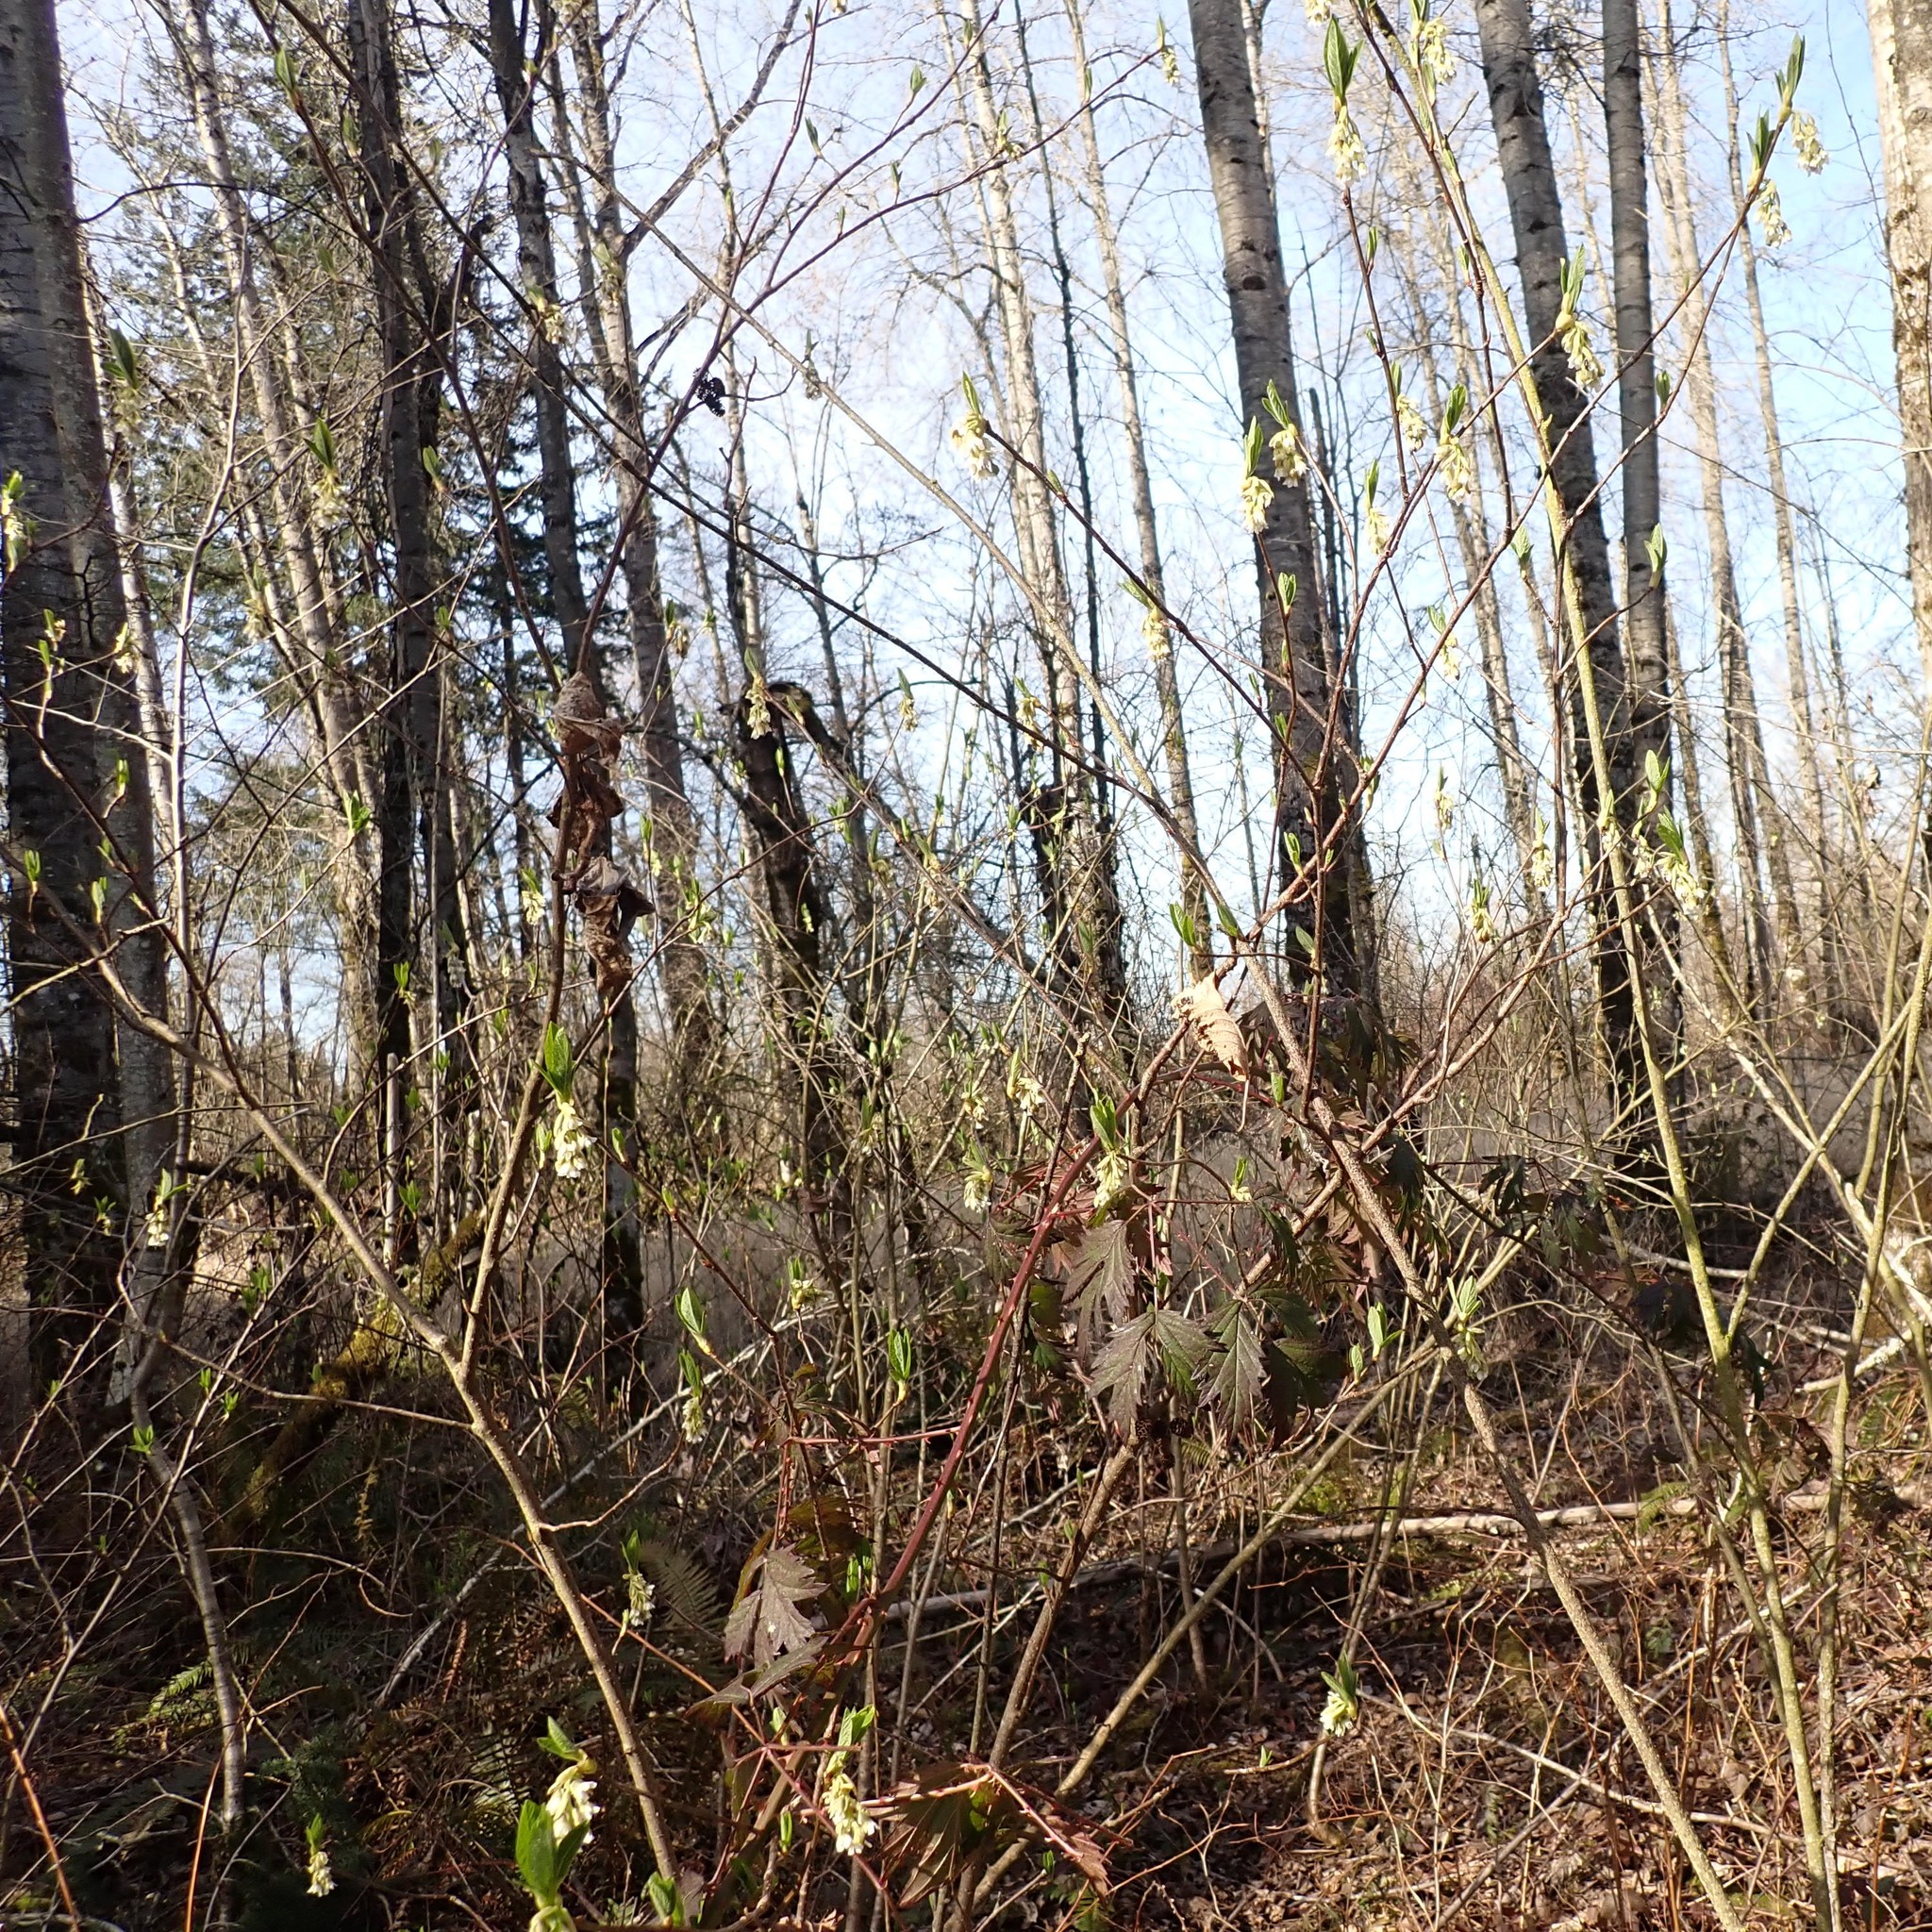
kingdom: Plantae
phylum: Tracheophyta
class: Magnoliopsida
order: Rosales
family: Rosaceae
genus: Oemleria
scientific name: Oemleria cerasiformis
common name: Osoberry
